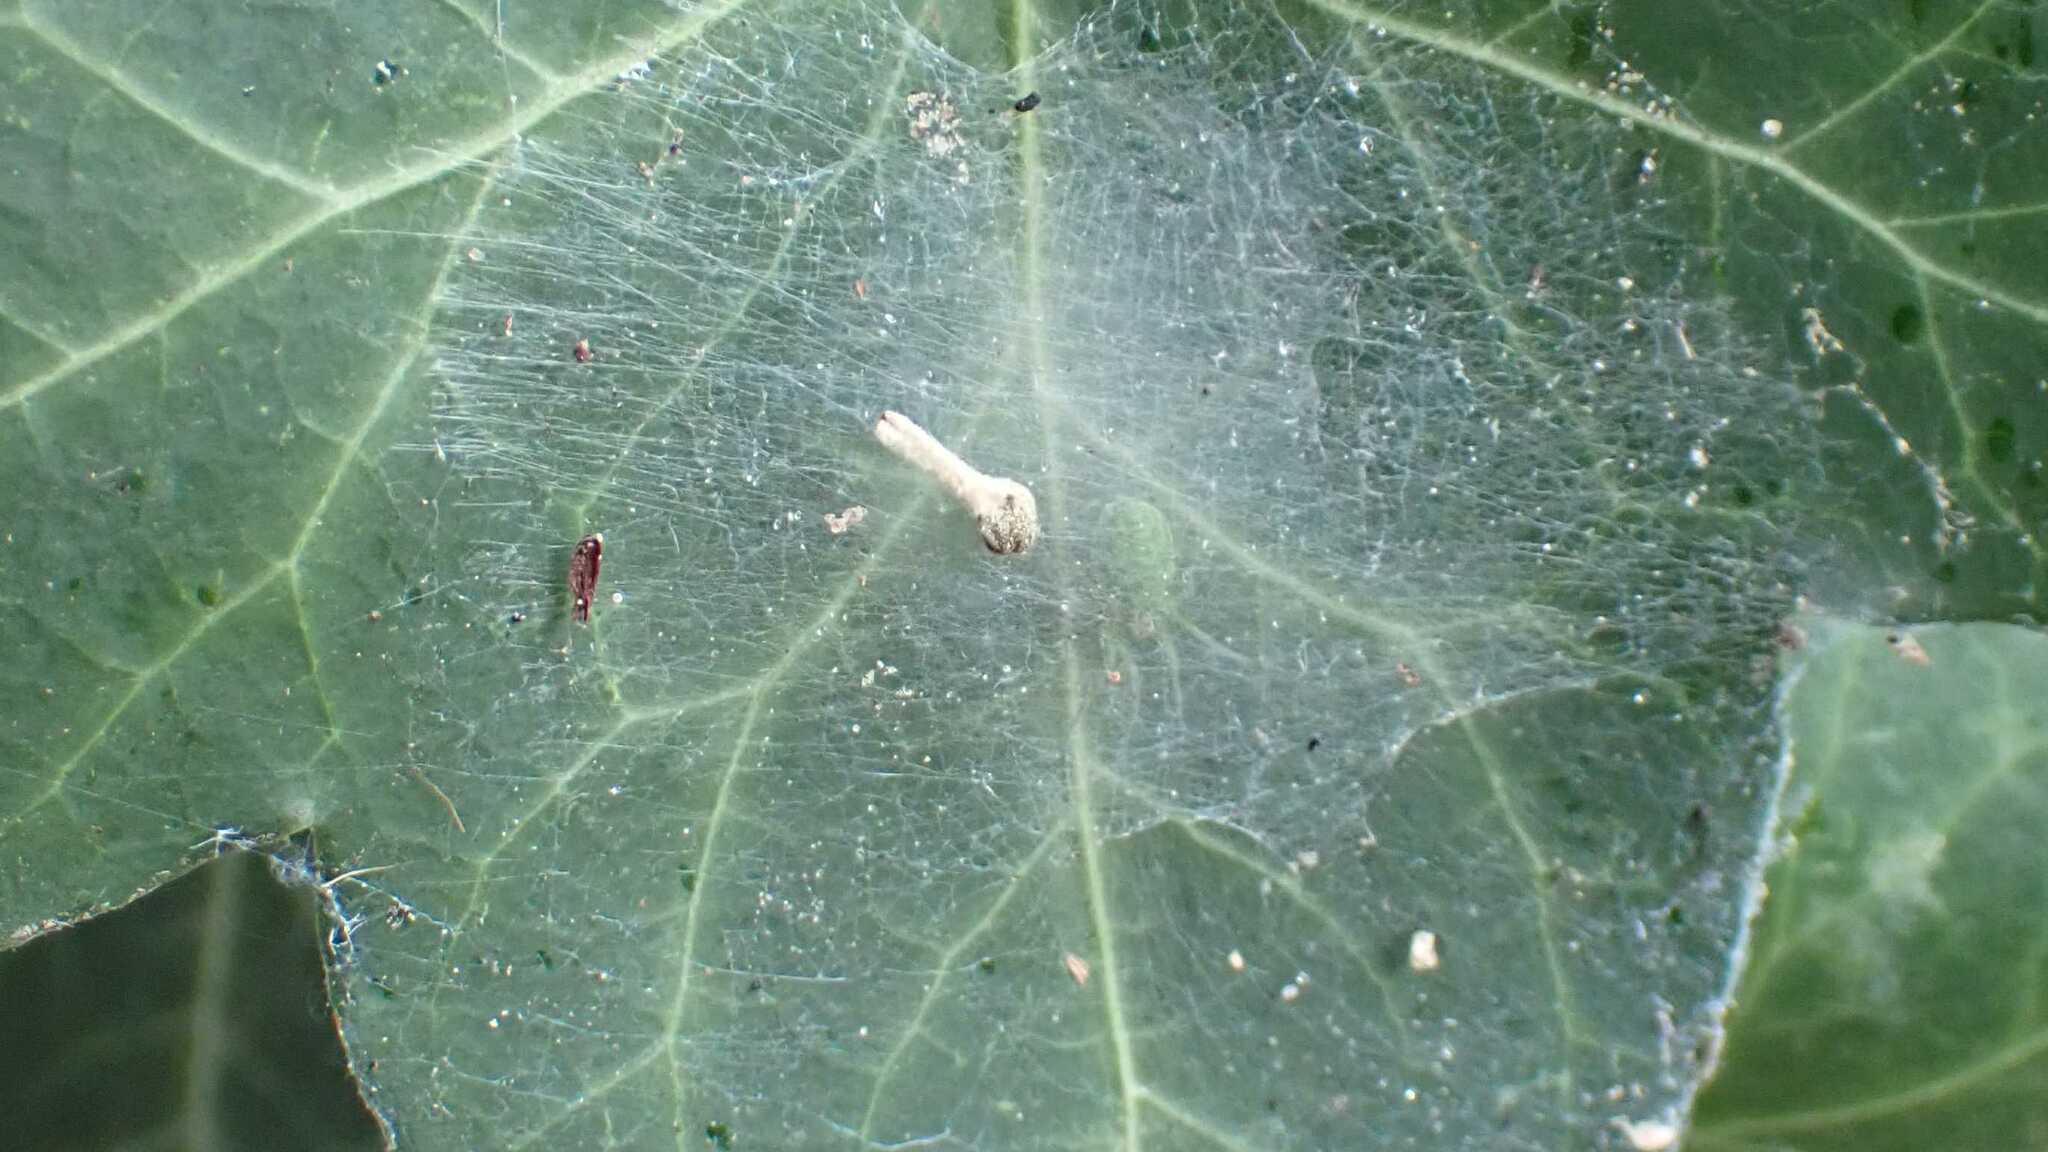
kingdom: Animalia
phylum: Arthropoda
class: Arachnida
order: Araneae
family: Dictynidae
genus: Nigma
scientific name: Nigma walckenaeri
